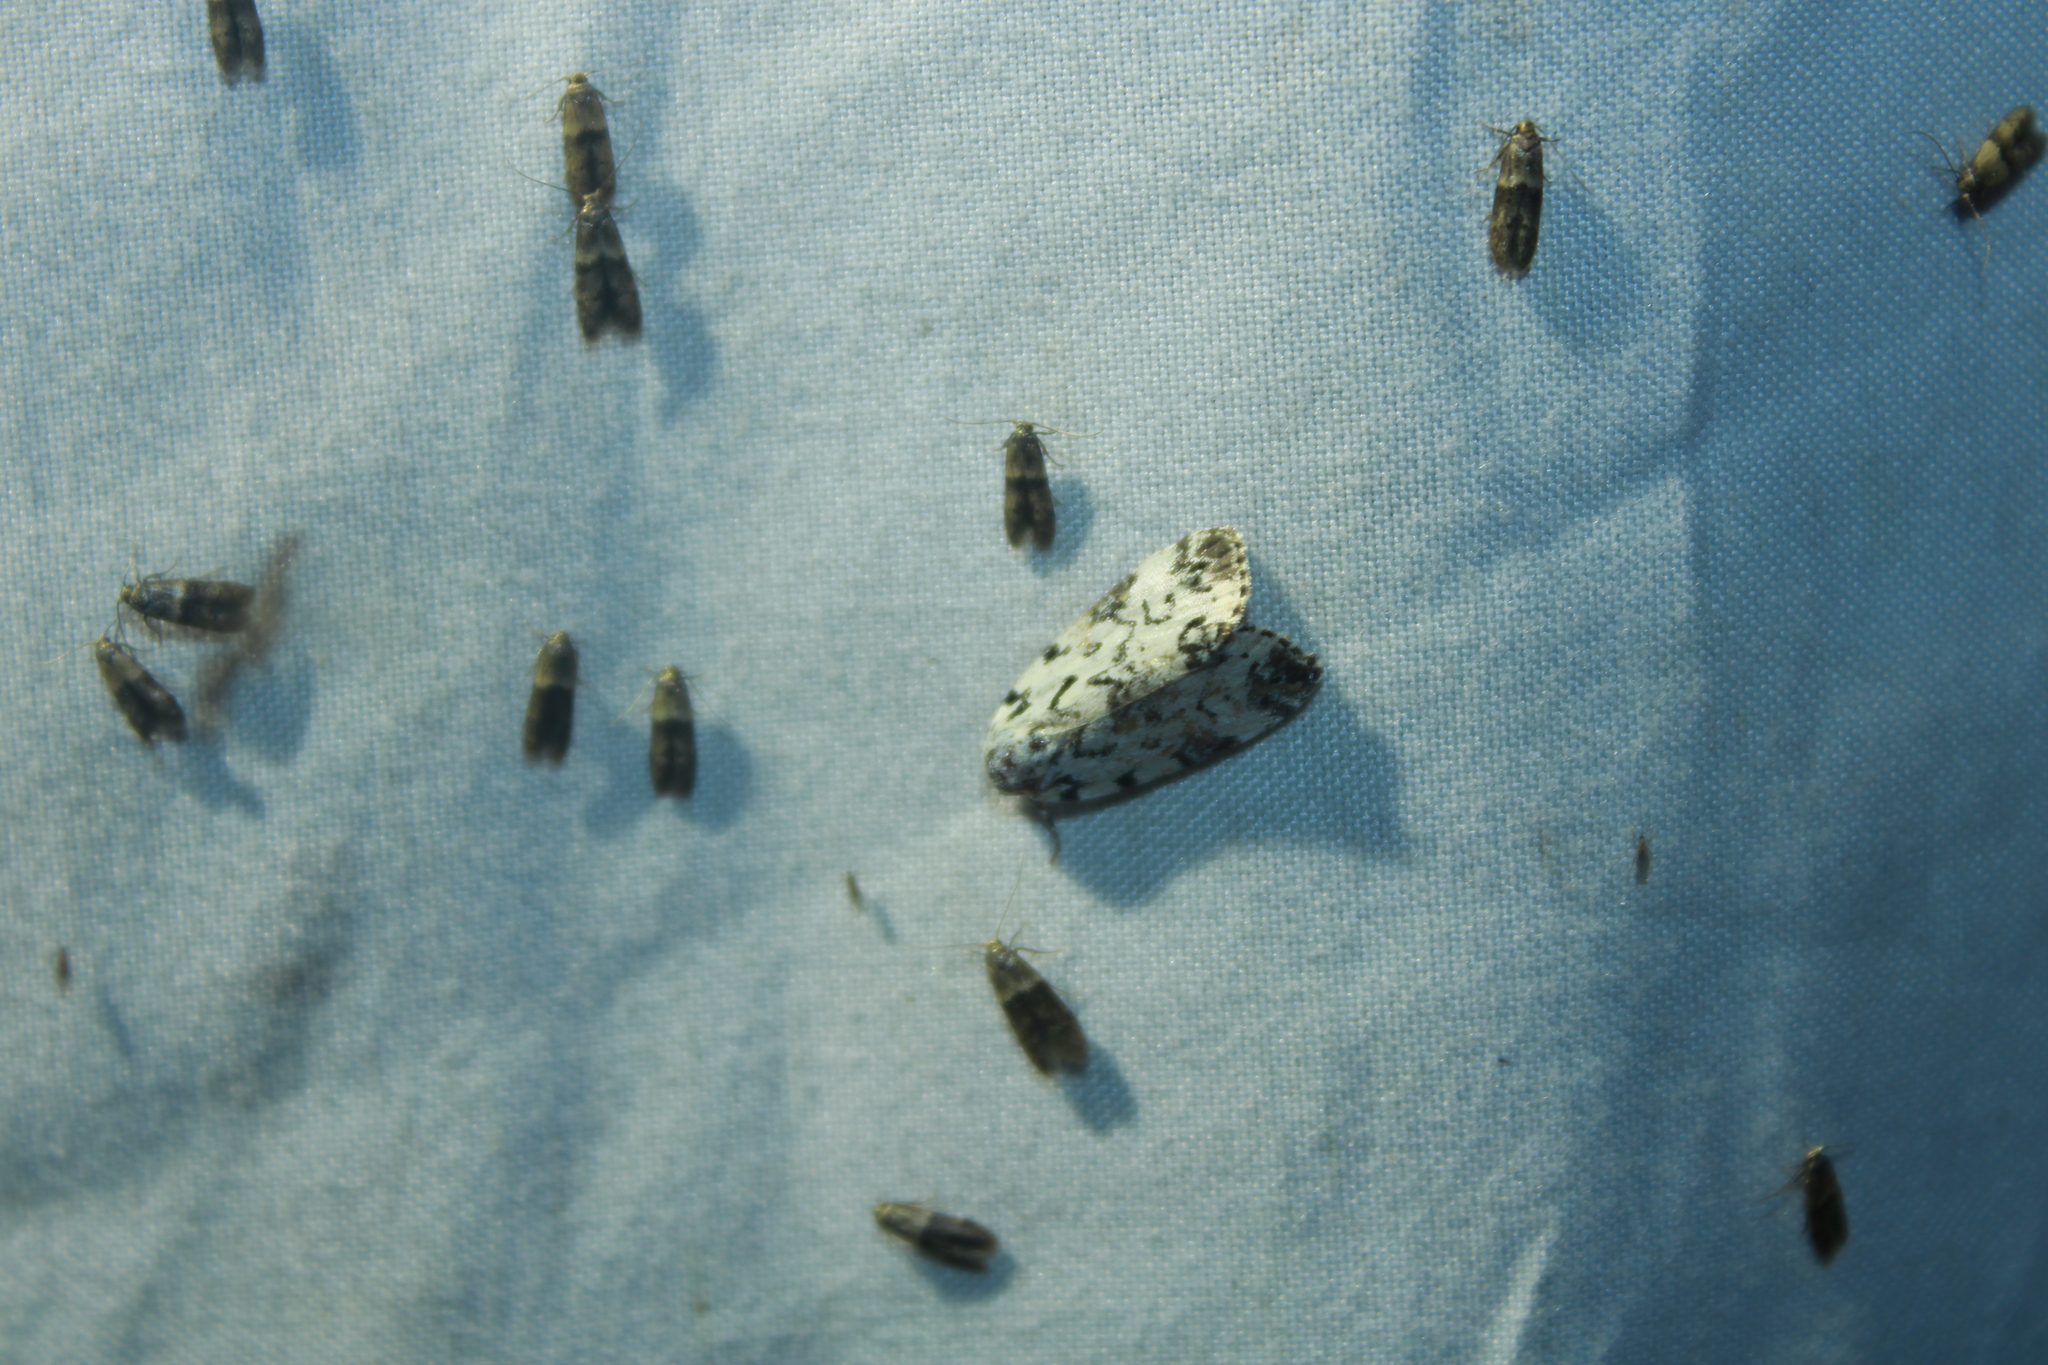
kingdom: Animalia
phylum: Arthropoda
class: Insecta
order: Lepidoptera
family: Noctuidae
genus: Polygrammate
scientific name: Polygrammate hebraeicum
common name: Hebrew moth
